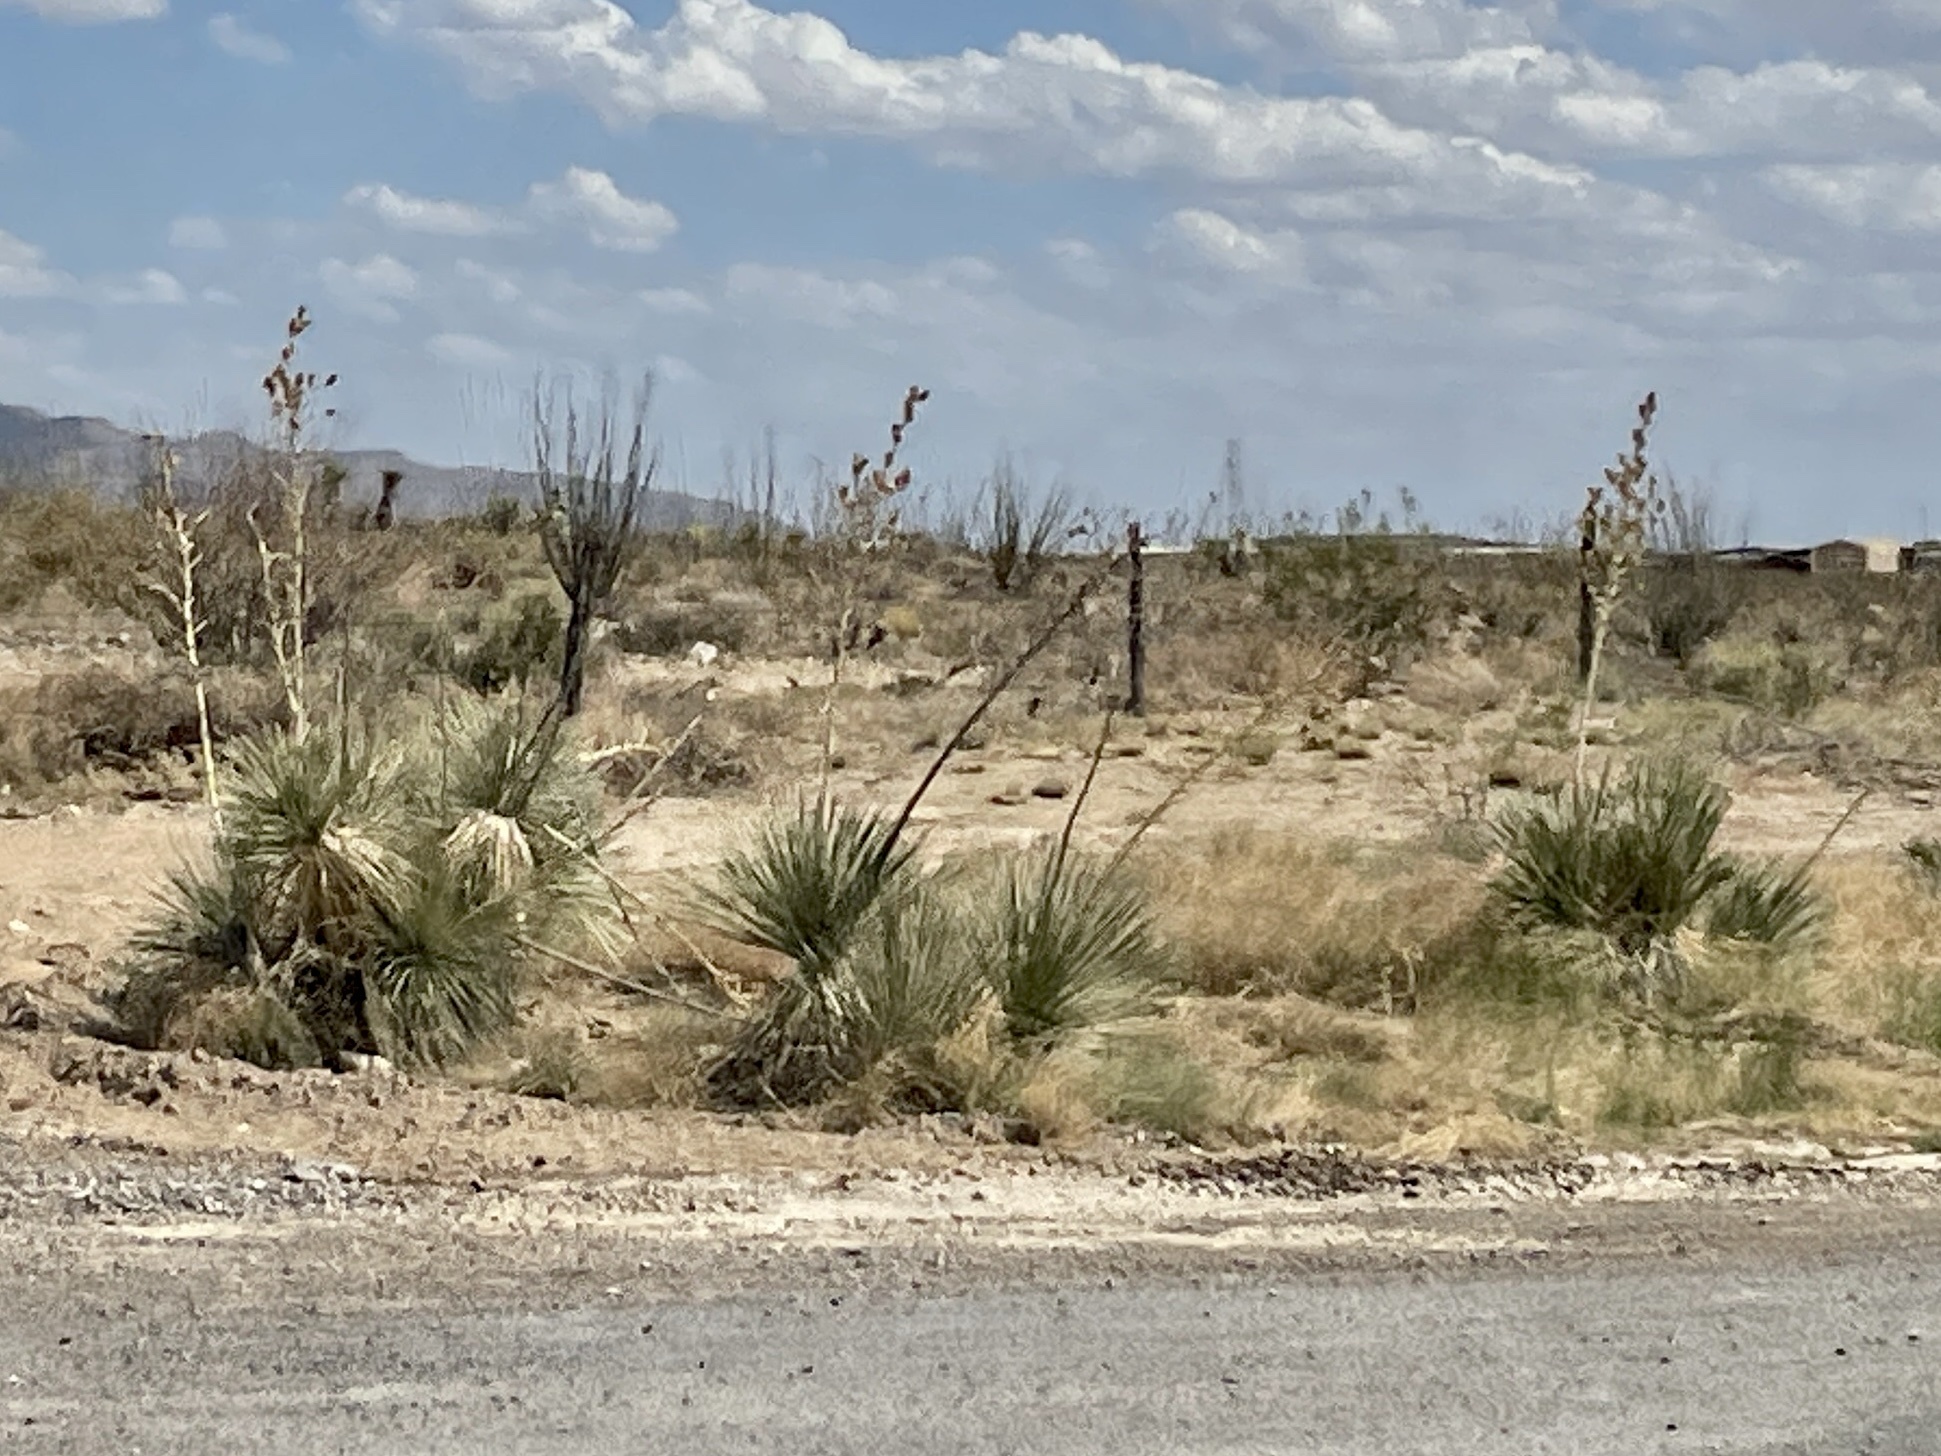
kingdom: Plantae
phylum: Tracheophyta
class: Liliopsida
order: Asparagales
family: Asparagaceae
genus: Yucca
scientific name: Yucca elata
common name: Palmella
